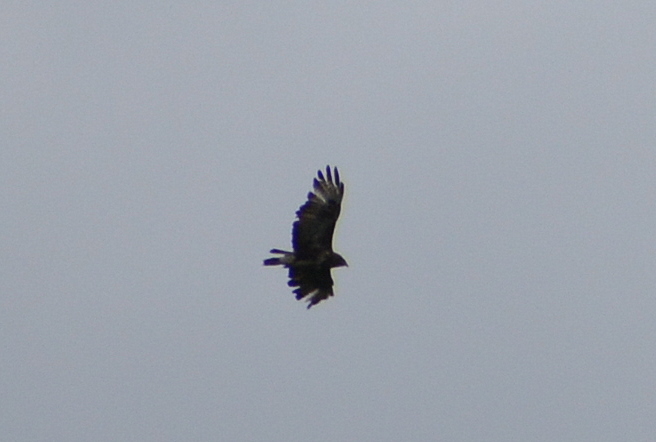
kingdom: Animalia
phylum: Chordata
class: Aves
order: Accipitriformes
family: Accipitridae
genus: Buteo
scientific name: Buteo buteo
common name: Common buzzard
